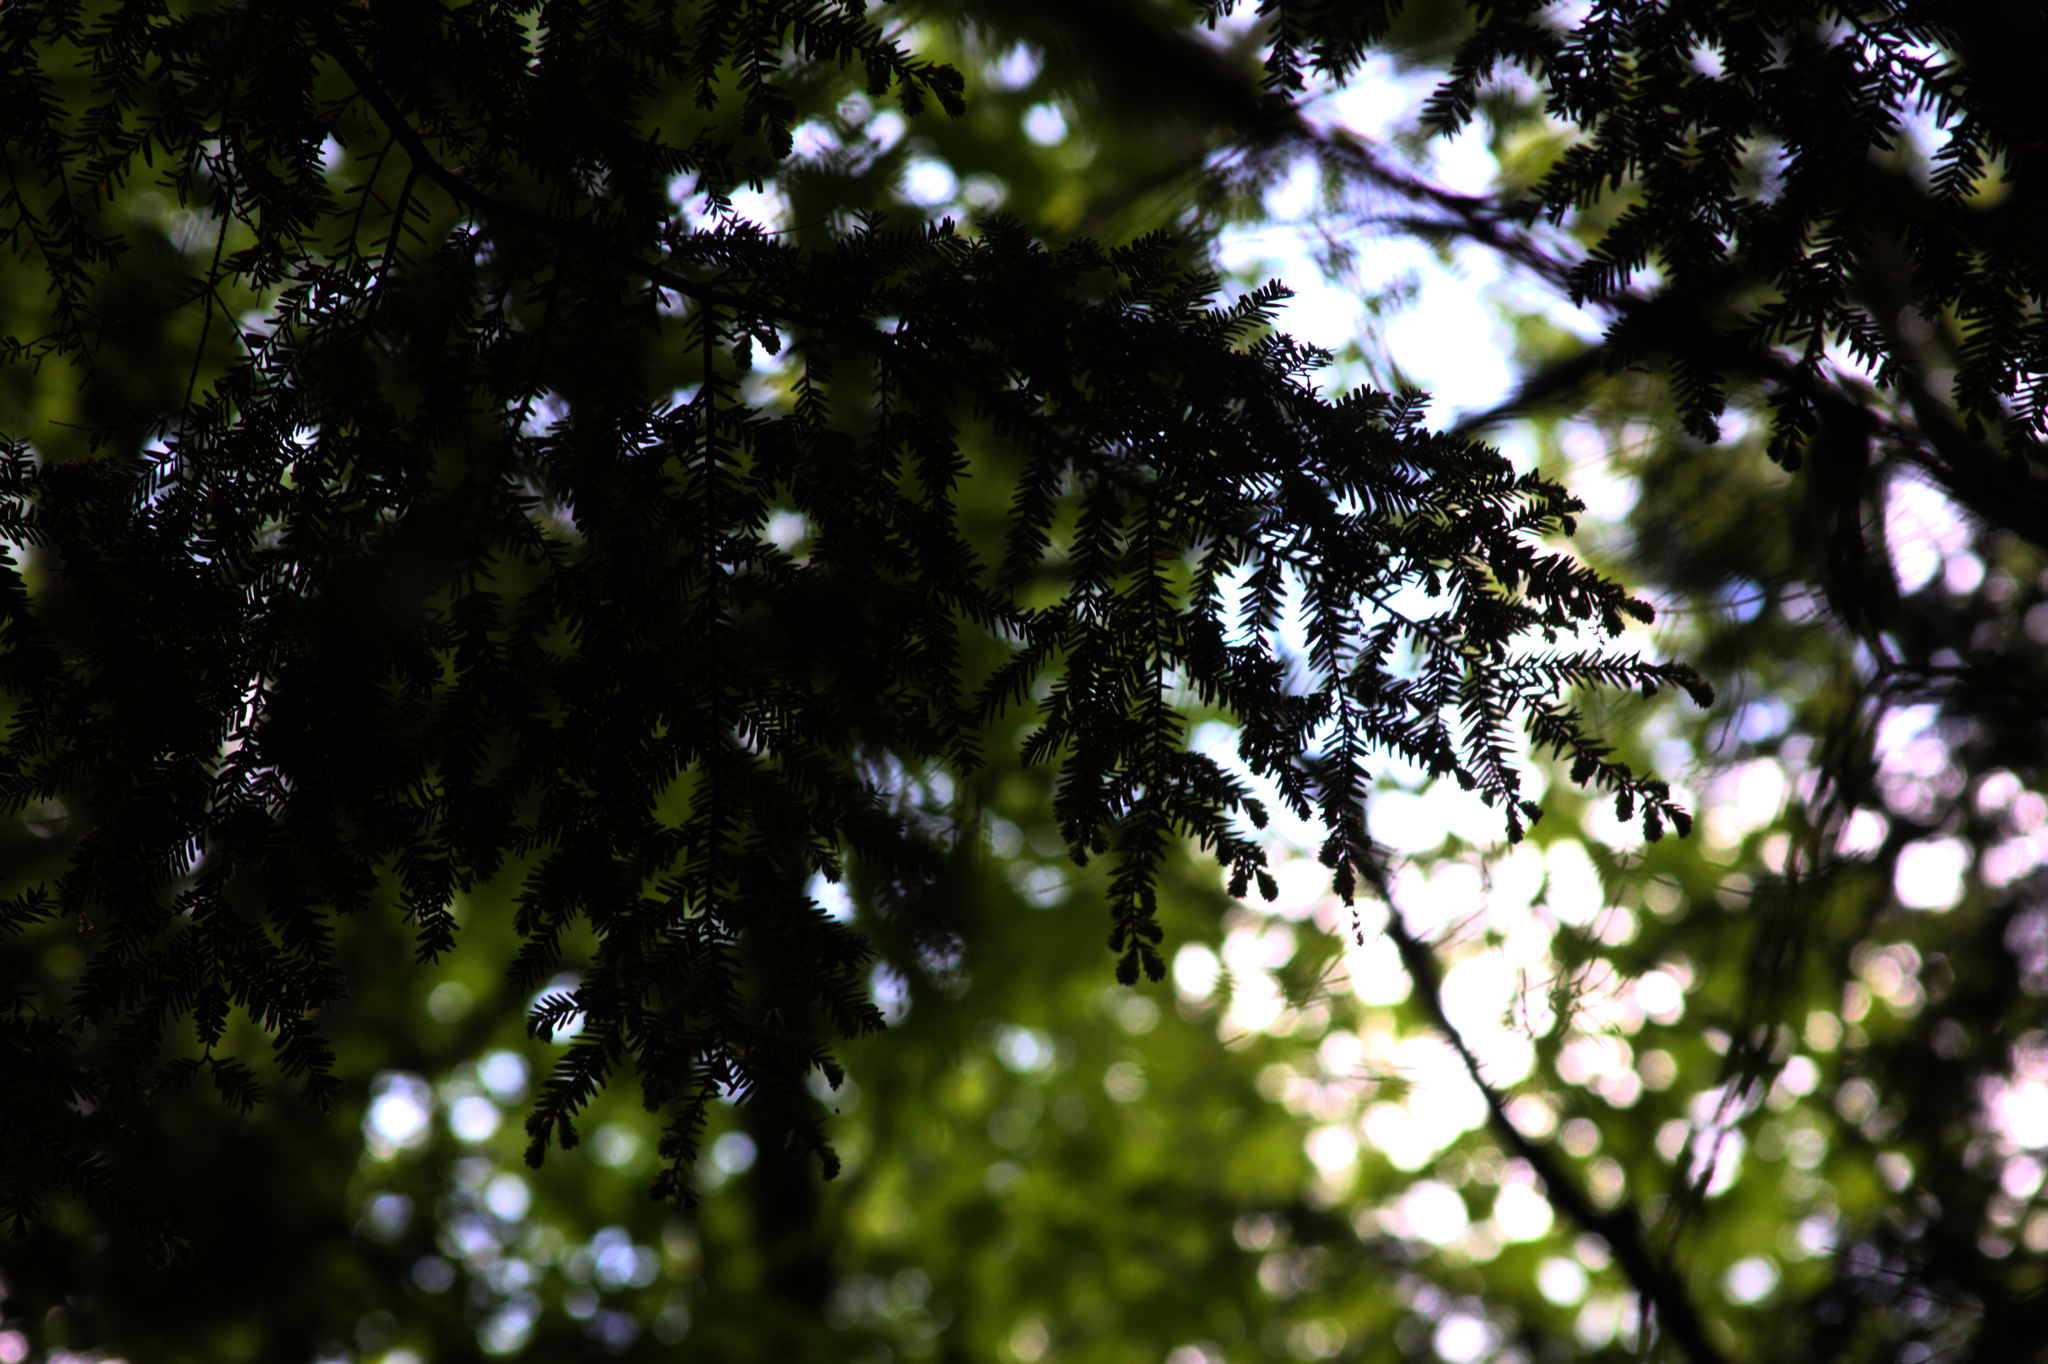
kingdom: Plantae
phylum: Tracheophyta
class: Pinopsida
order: Pinales
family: Pinaceae
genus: Tsuga
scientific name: Tsuga canadensis
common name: Eastern hemlock
